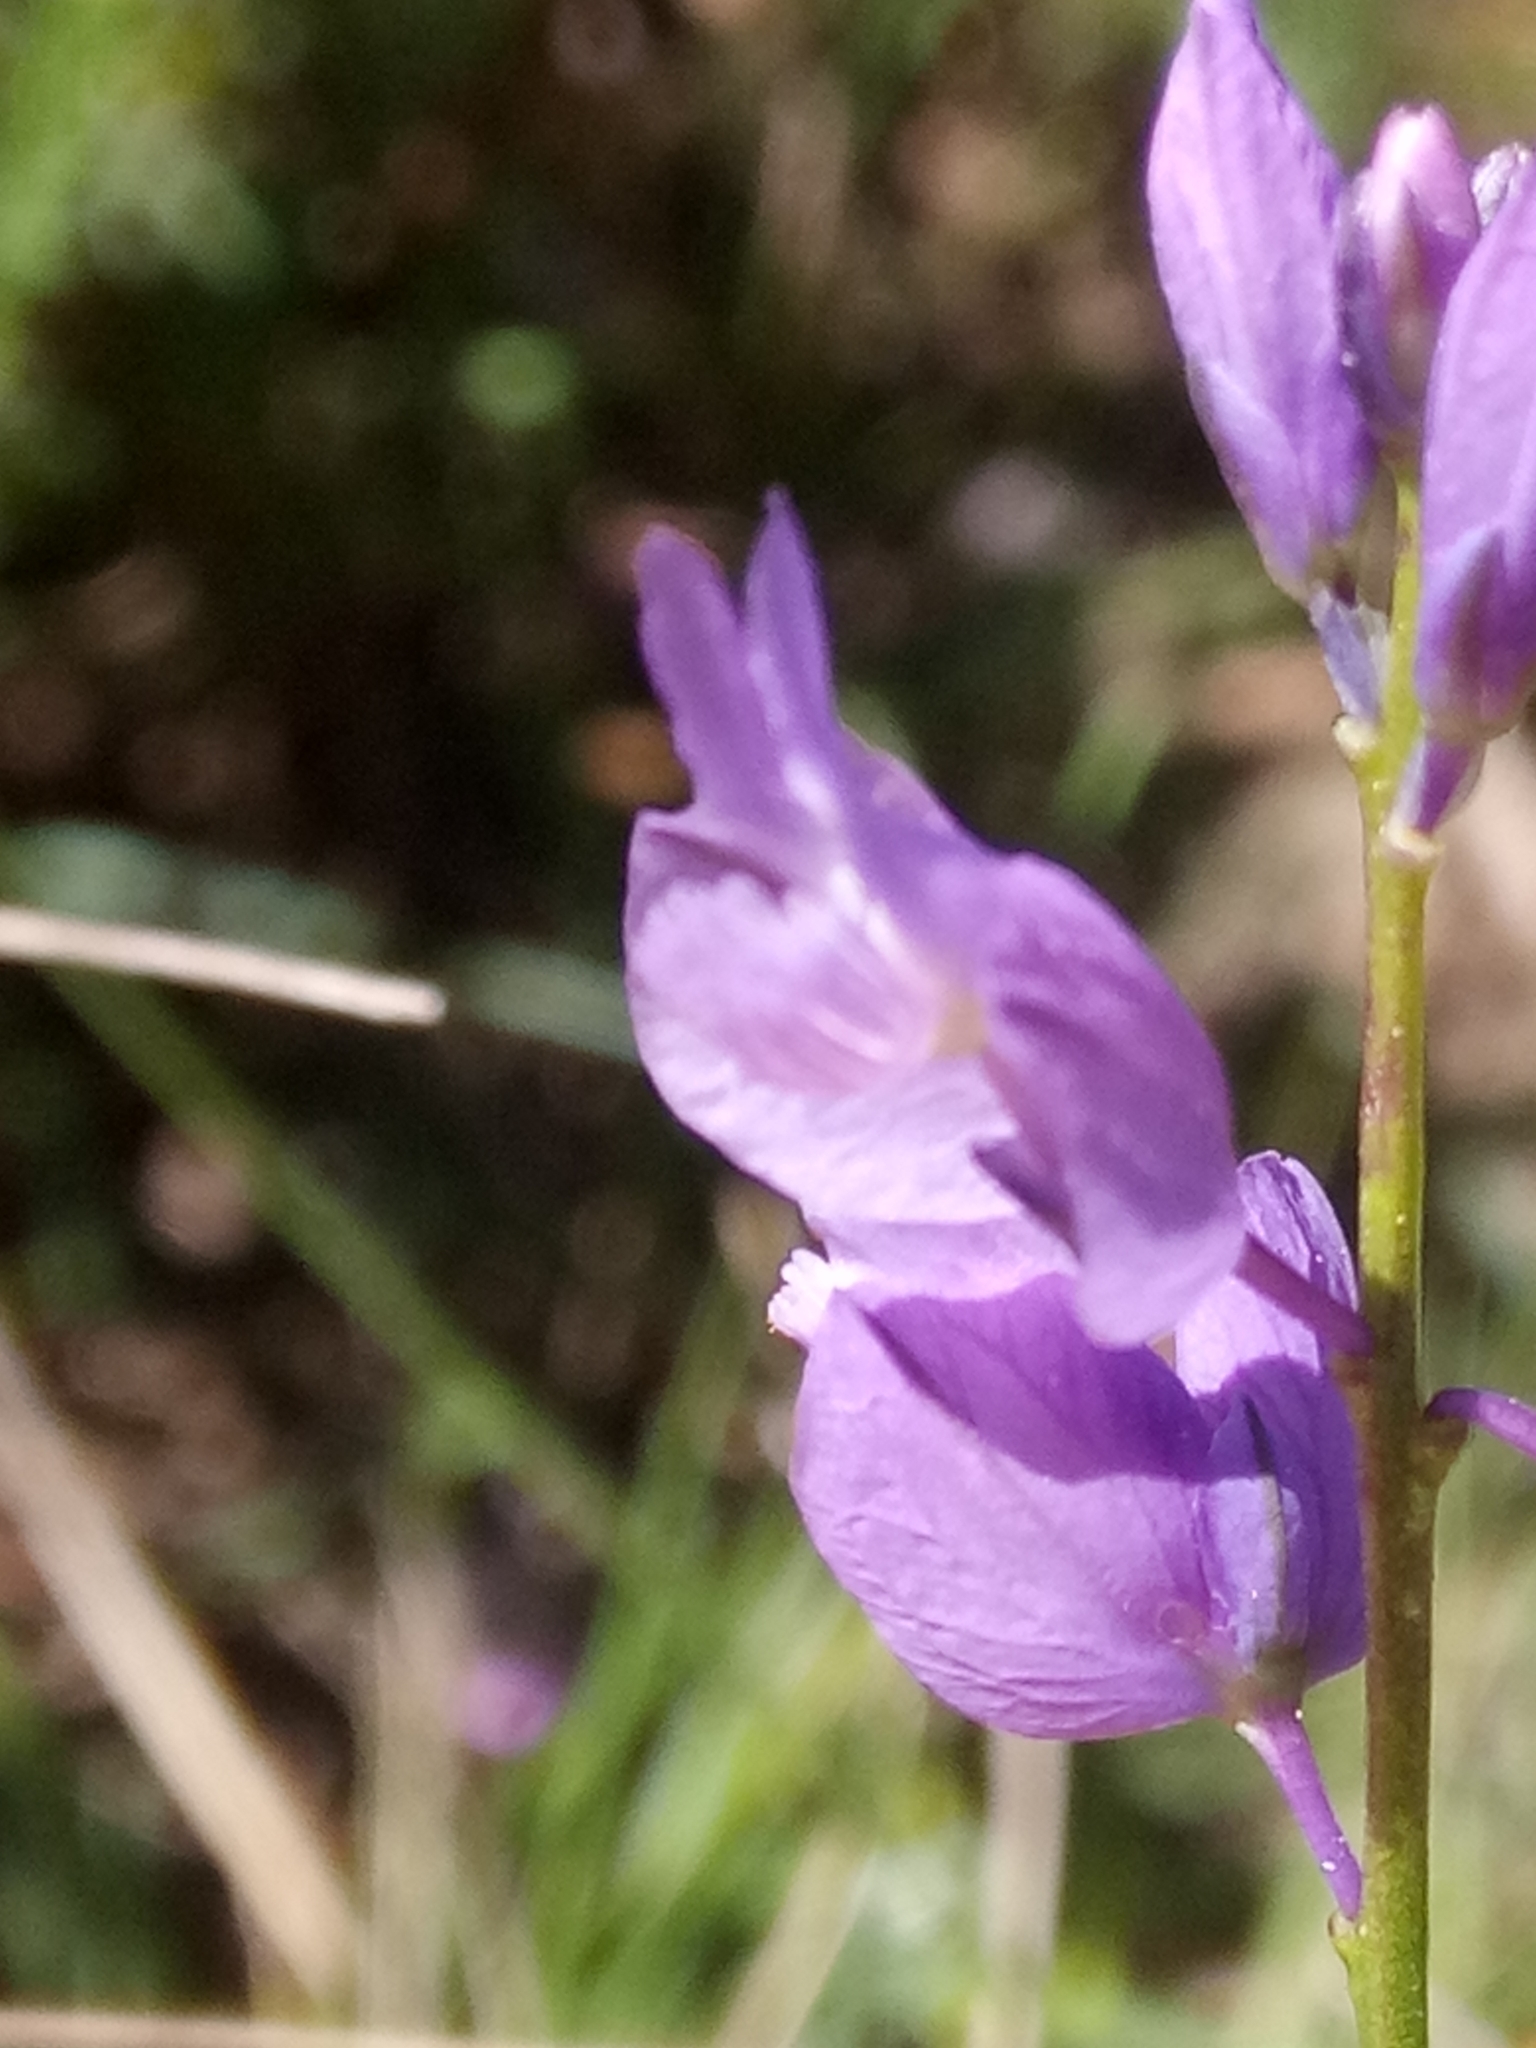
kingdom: Plantae
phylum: Tracheophyta
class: Magnoliopsida
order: Fabales
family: Polygalaceae
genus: Polygala
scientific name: Polygala nicaeensis
